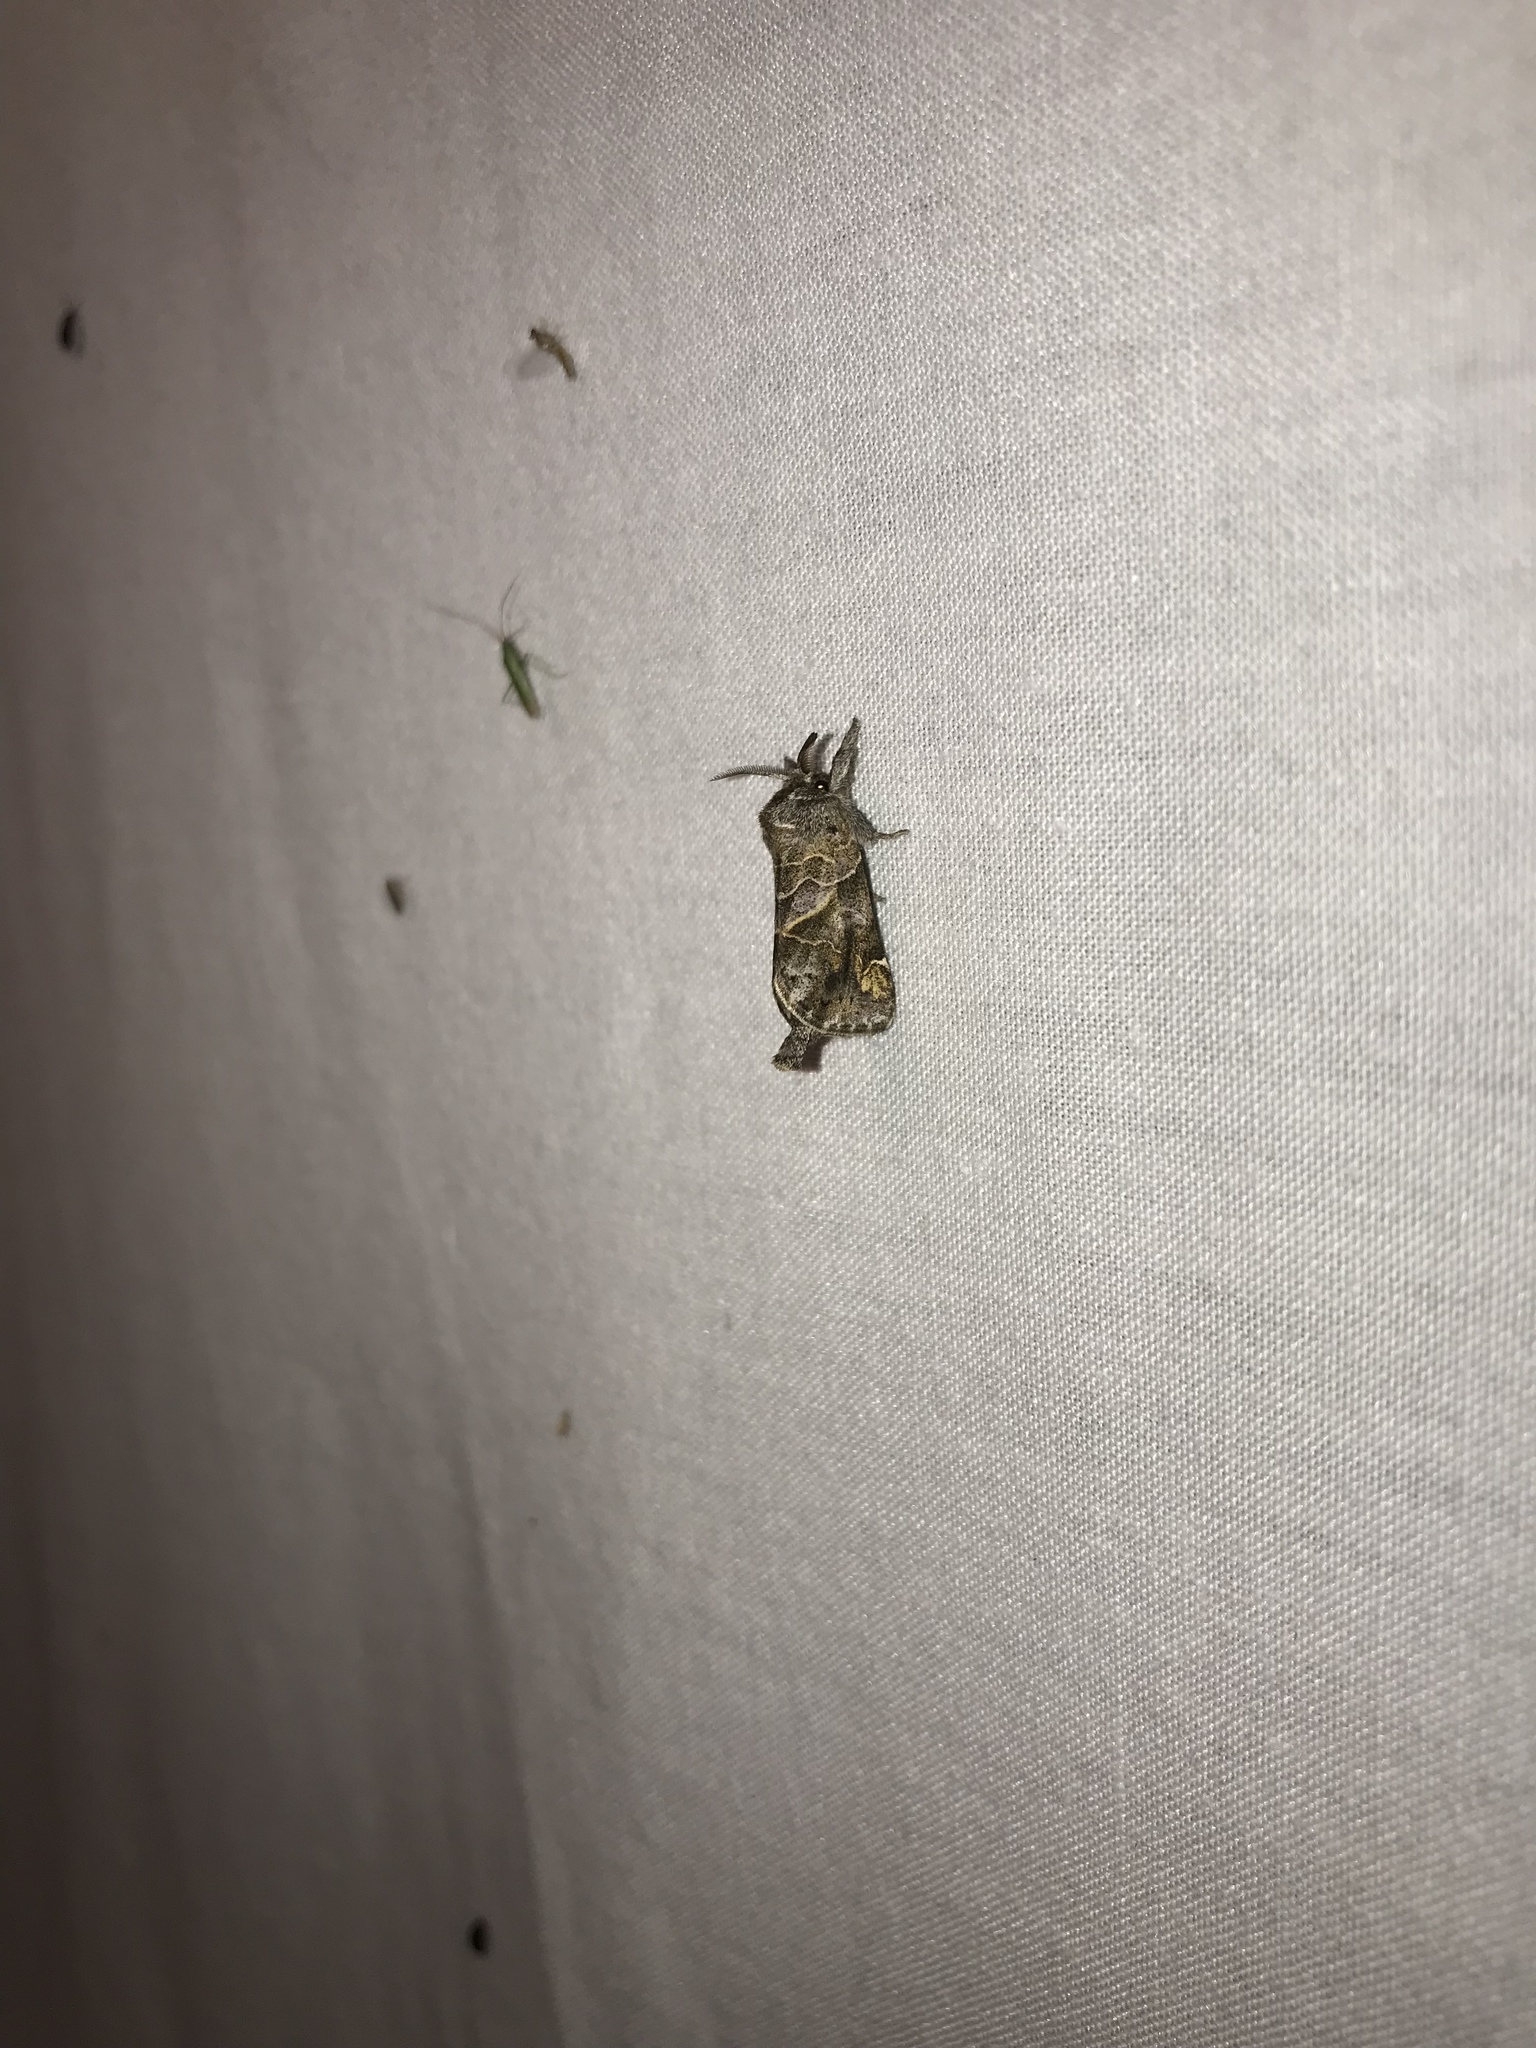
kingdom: Animalia
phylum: Arthropoda
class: Insecta
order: Lepidoptera
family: Notodontidae
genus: Clostera
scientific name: Clostera strigosa
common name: Striped chocolate-tip moth
